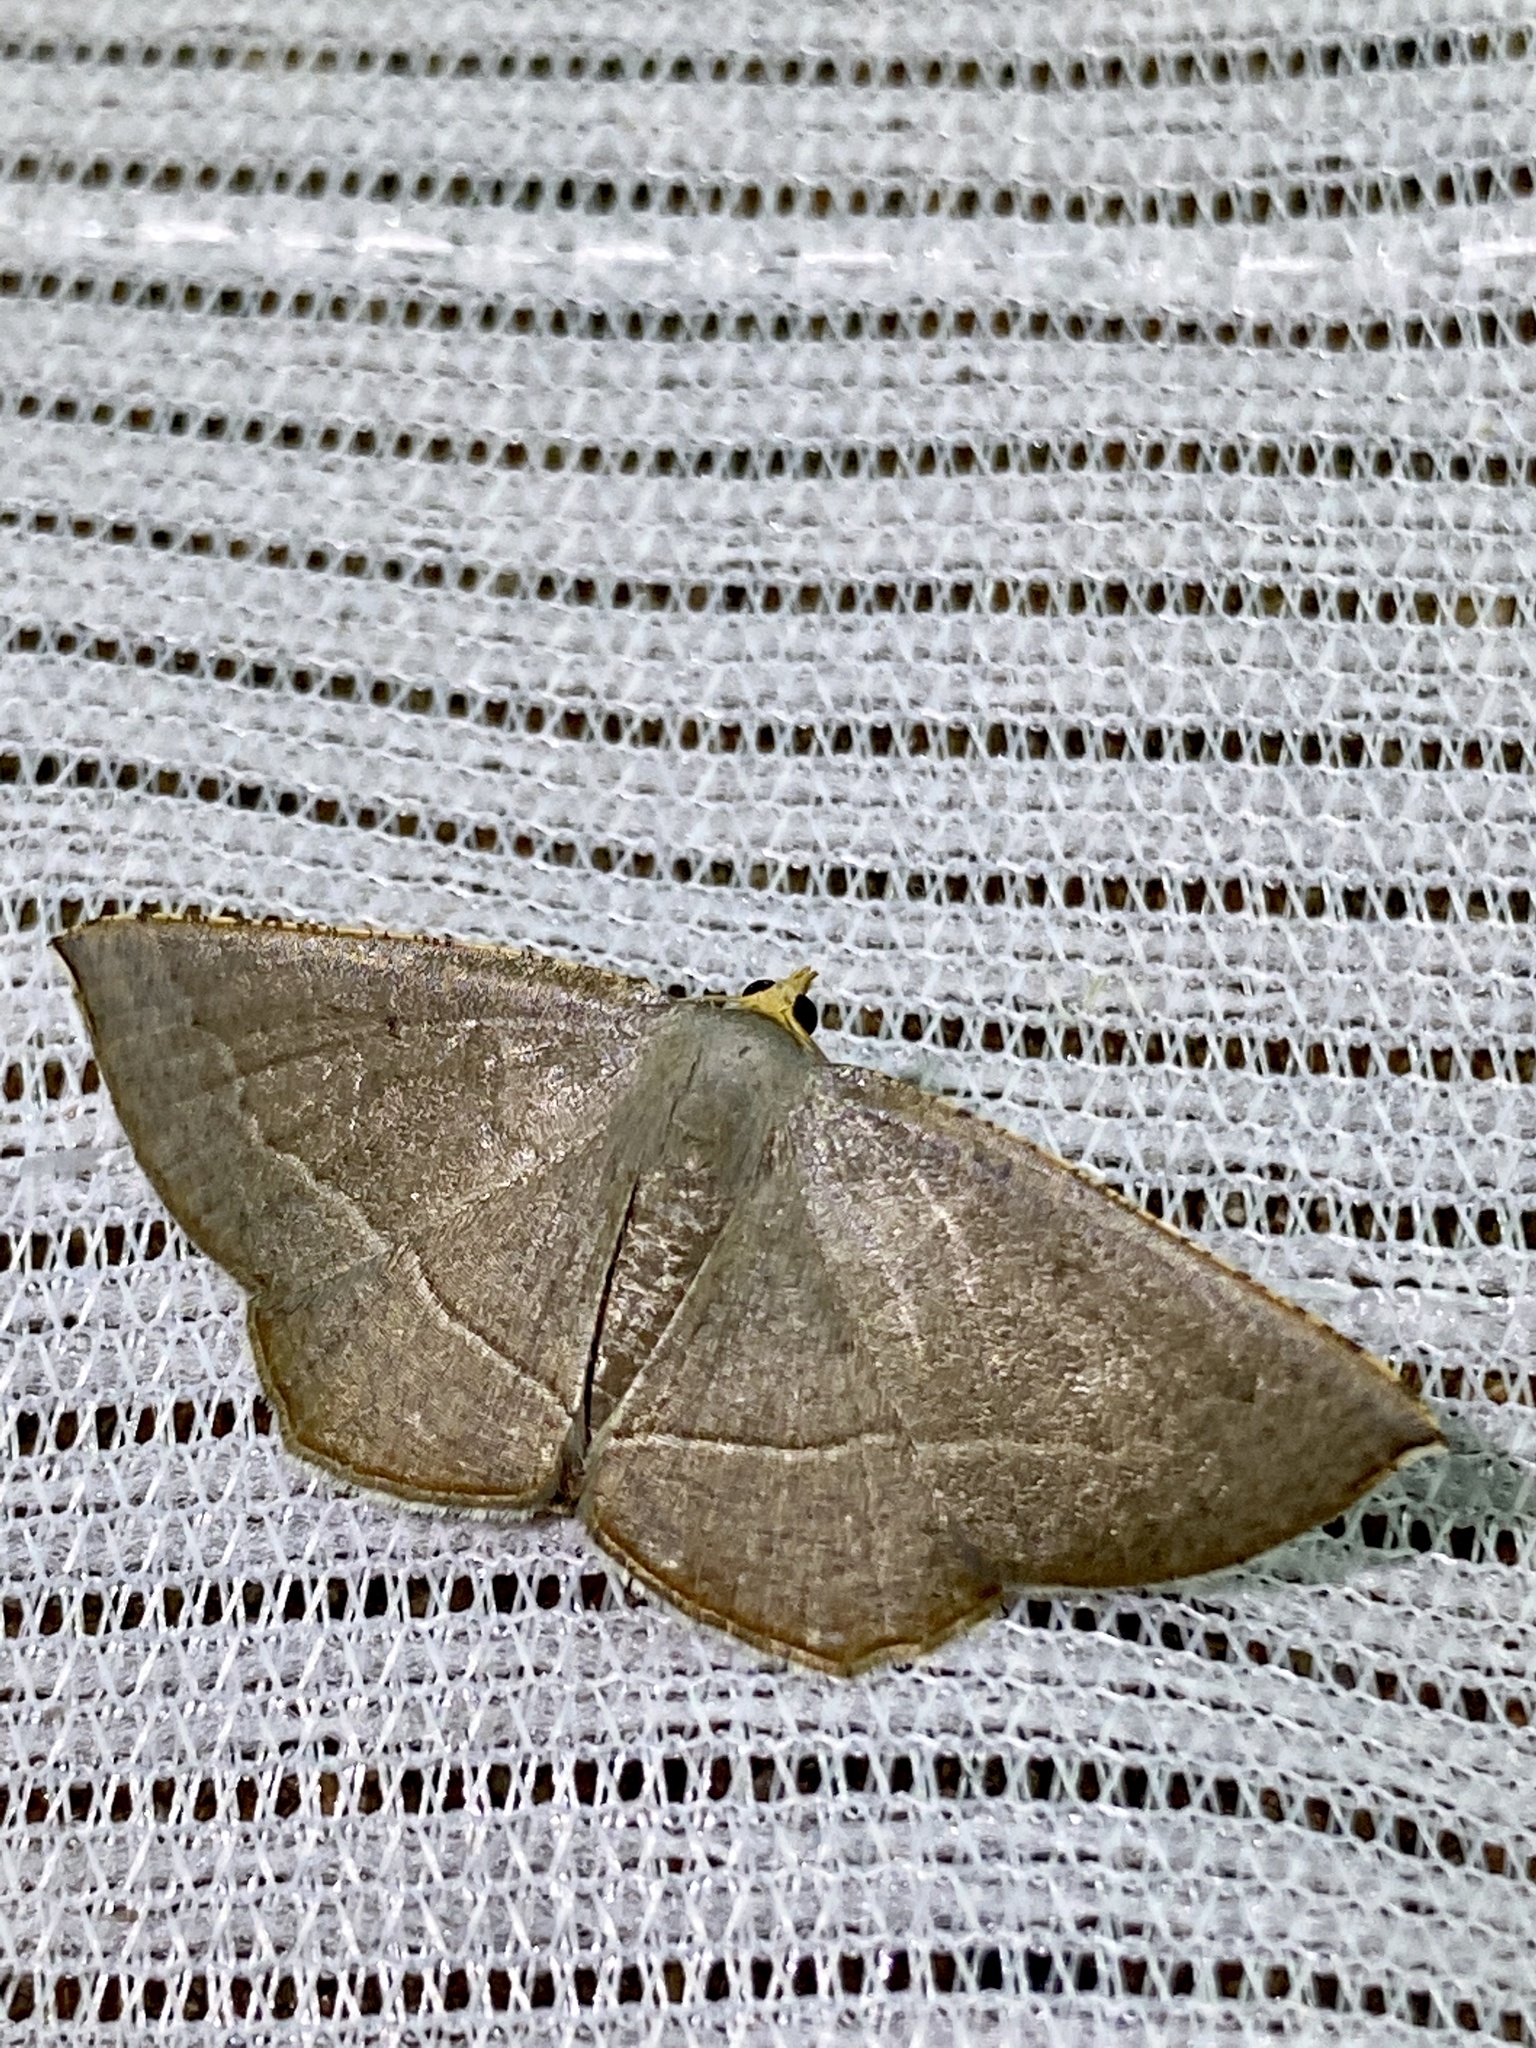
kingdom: Animalia
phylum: Arthropoda
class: Insecta
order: Lepidoptera
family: Geometridae
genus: Plesiomorpha
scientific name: Plesiomorpha flaviceps
